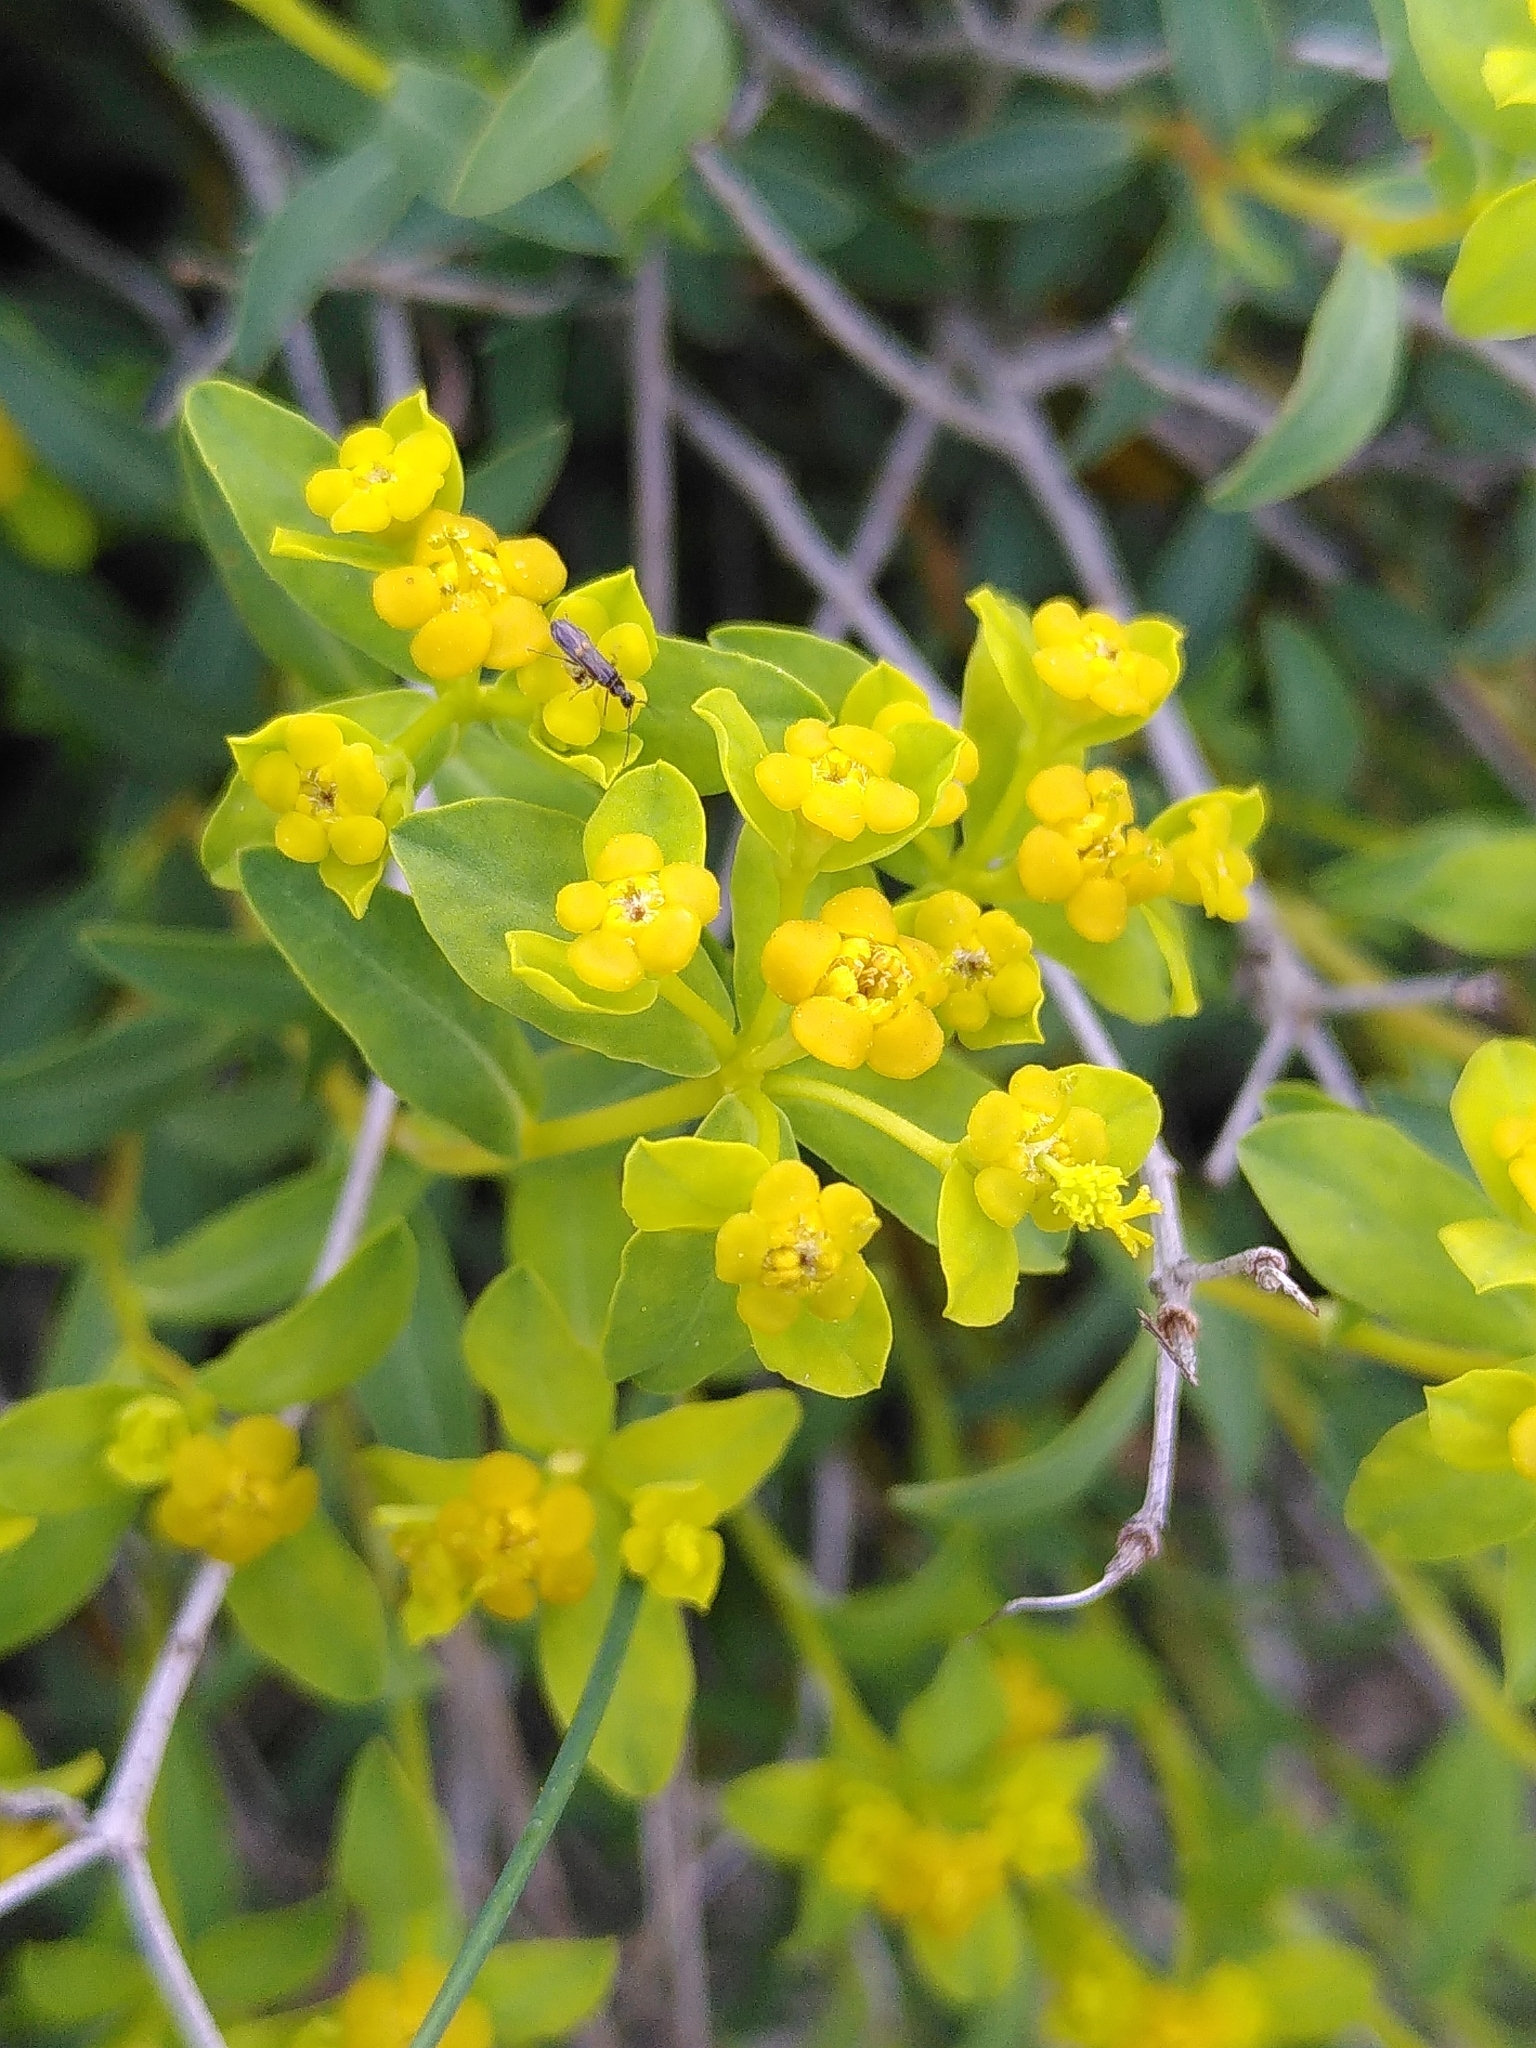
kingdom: Plantae
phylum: Tracheophyta
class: Magnoliopsida
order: Malpighiales
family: Euphorbiaceae
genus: Euphorbia
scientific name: Euphorbia spinosa
